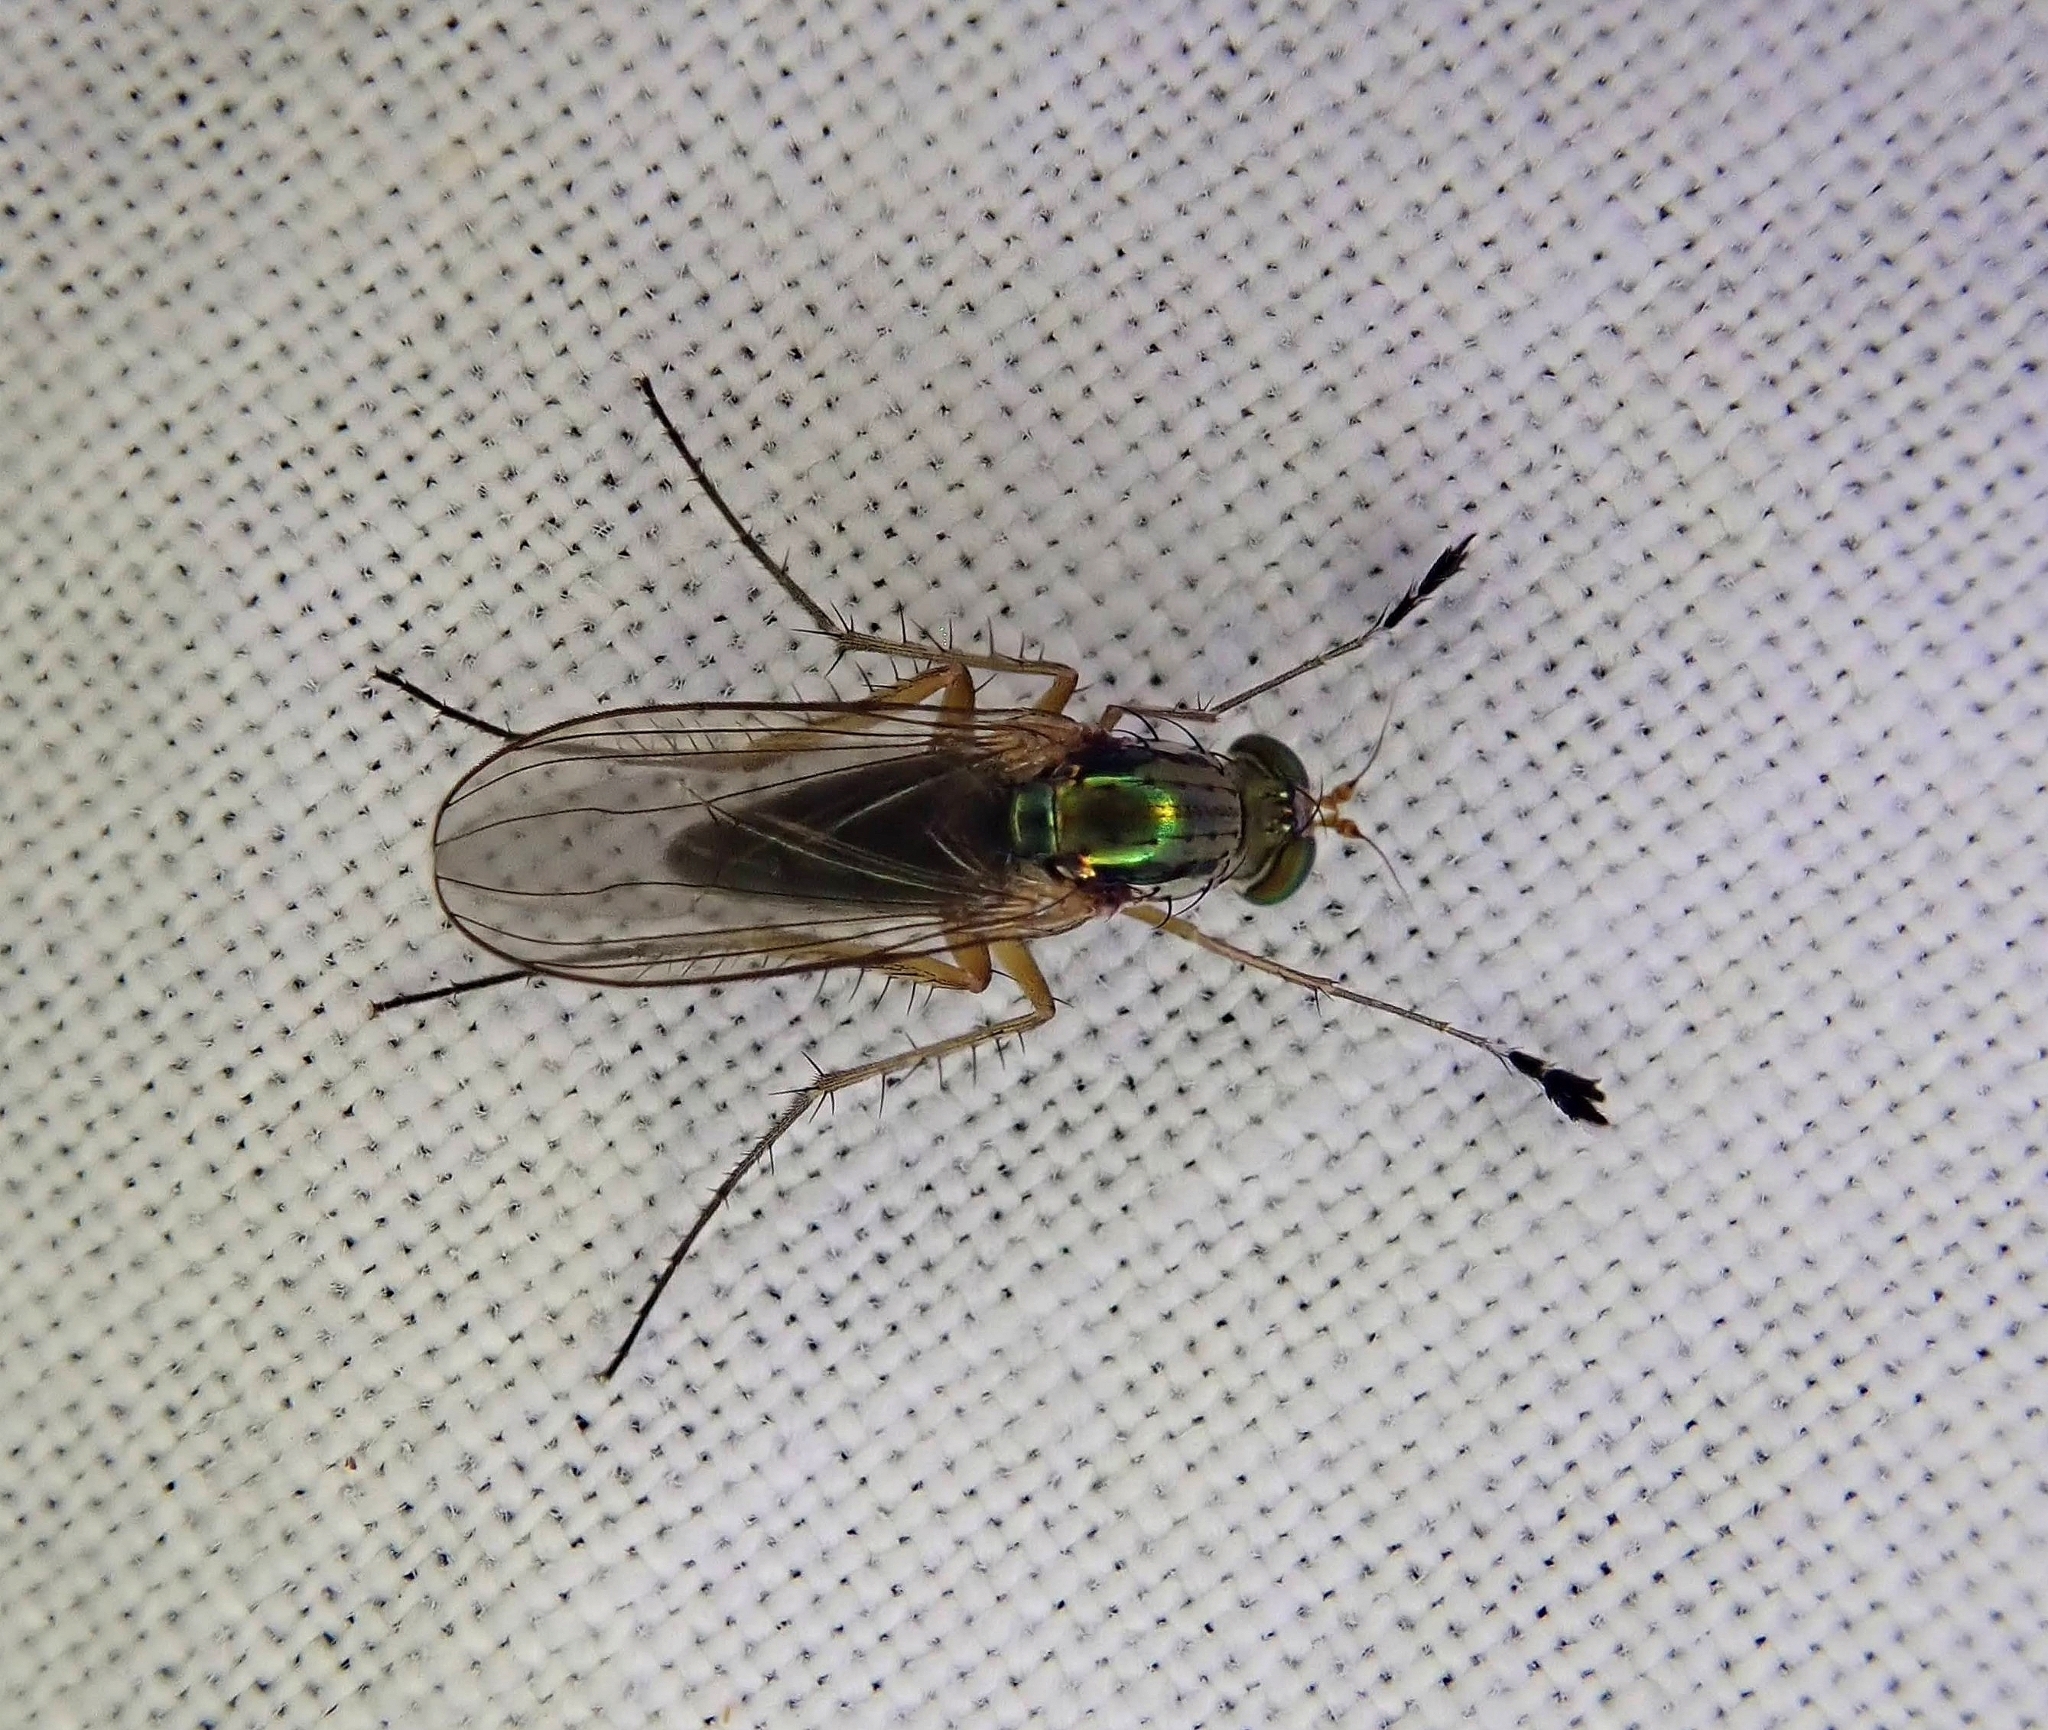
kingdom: Animalia
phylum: Arthropoda
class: Insecta
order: Diptera
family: Dolichopodidae
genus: Dolichopus
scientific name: Dolichopus pulchrimanus
